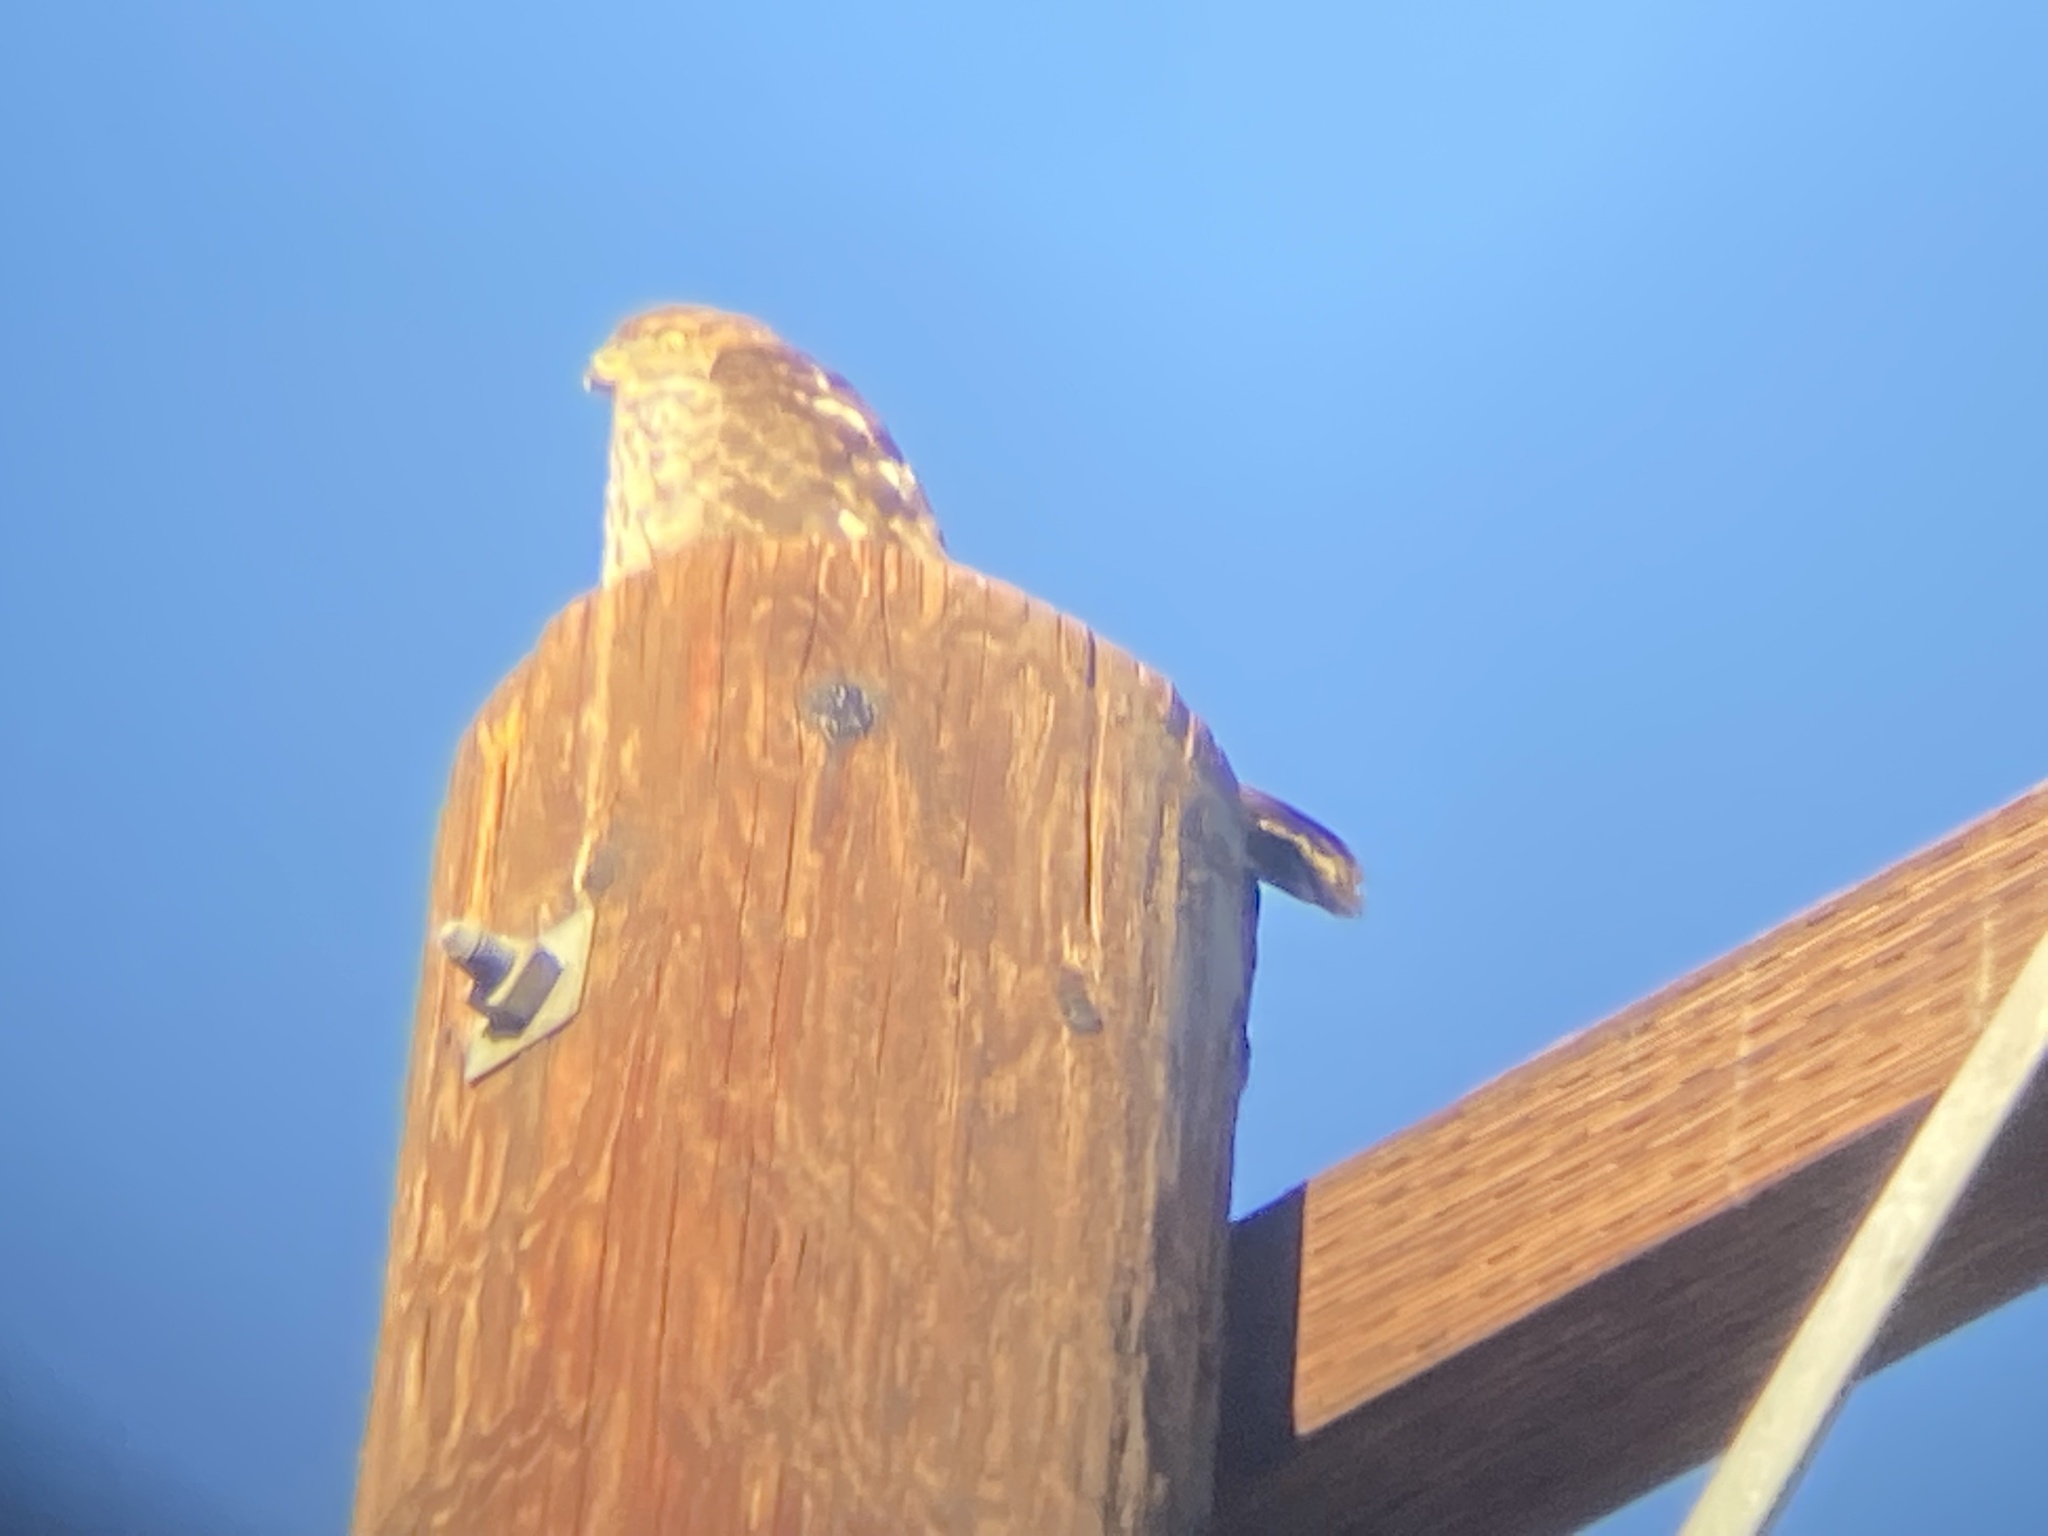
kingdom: Animalia
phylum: Chordata
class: Aves
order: Accipitriformes
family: Accipitridae
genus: Accipiter
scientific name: Accipiter cooperii
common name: Cooper's hawk
